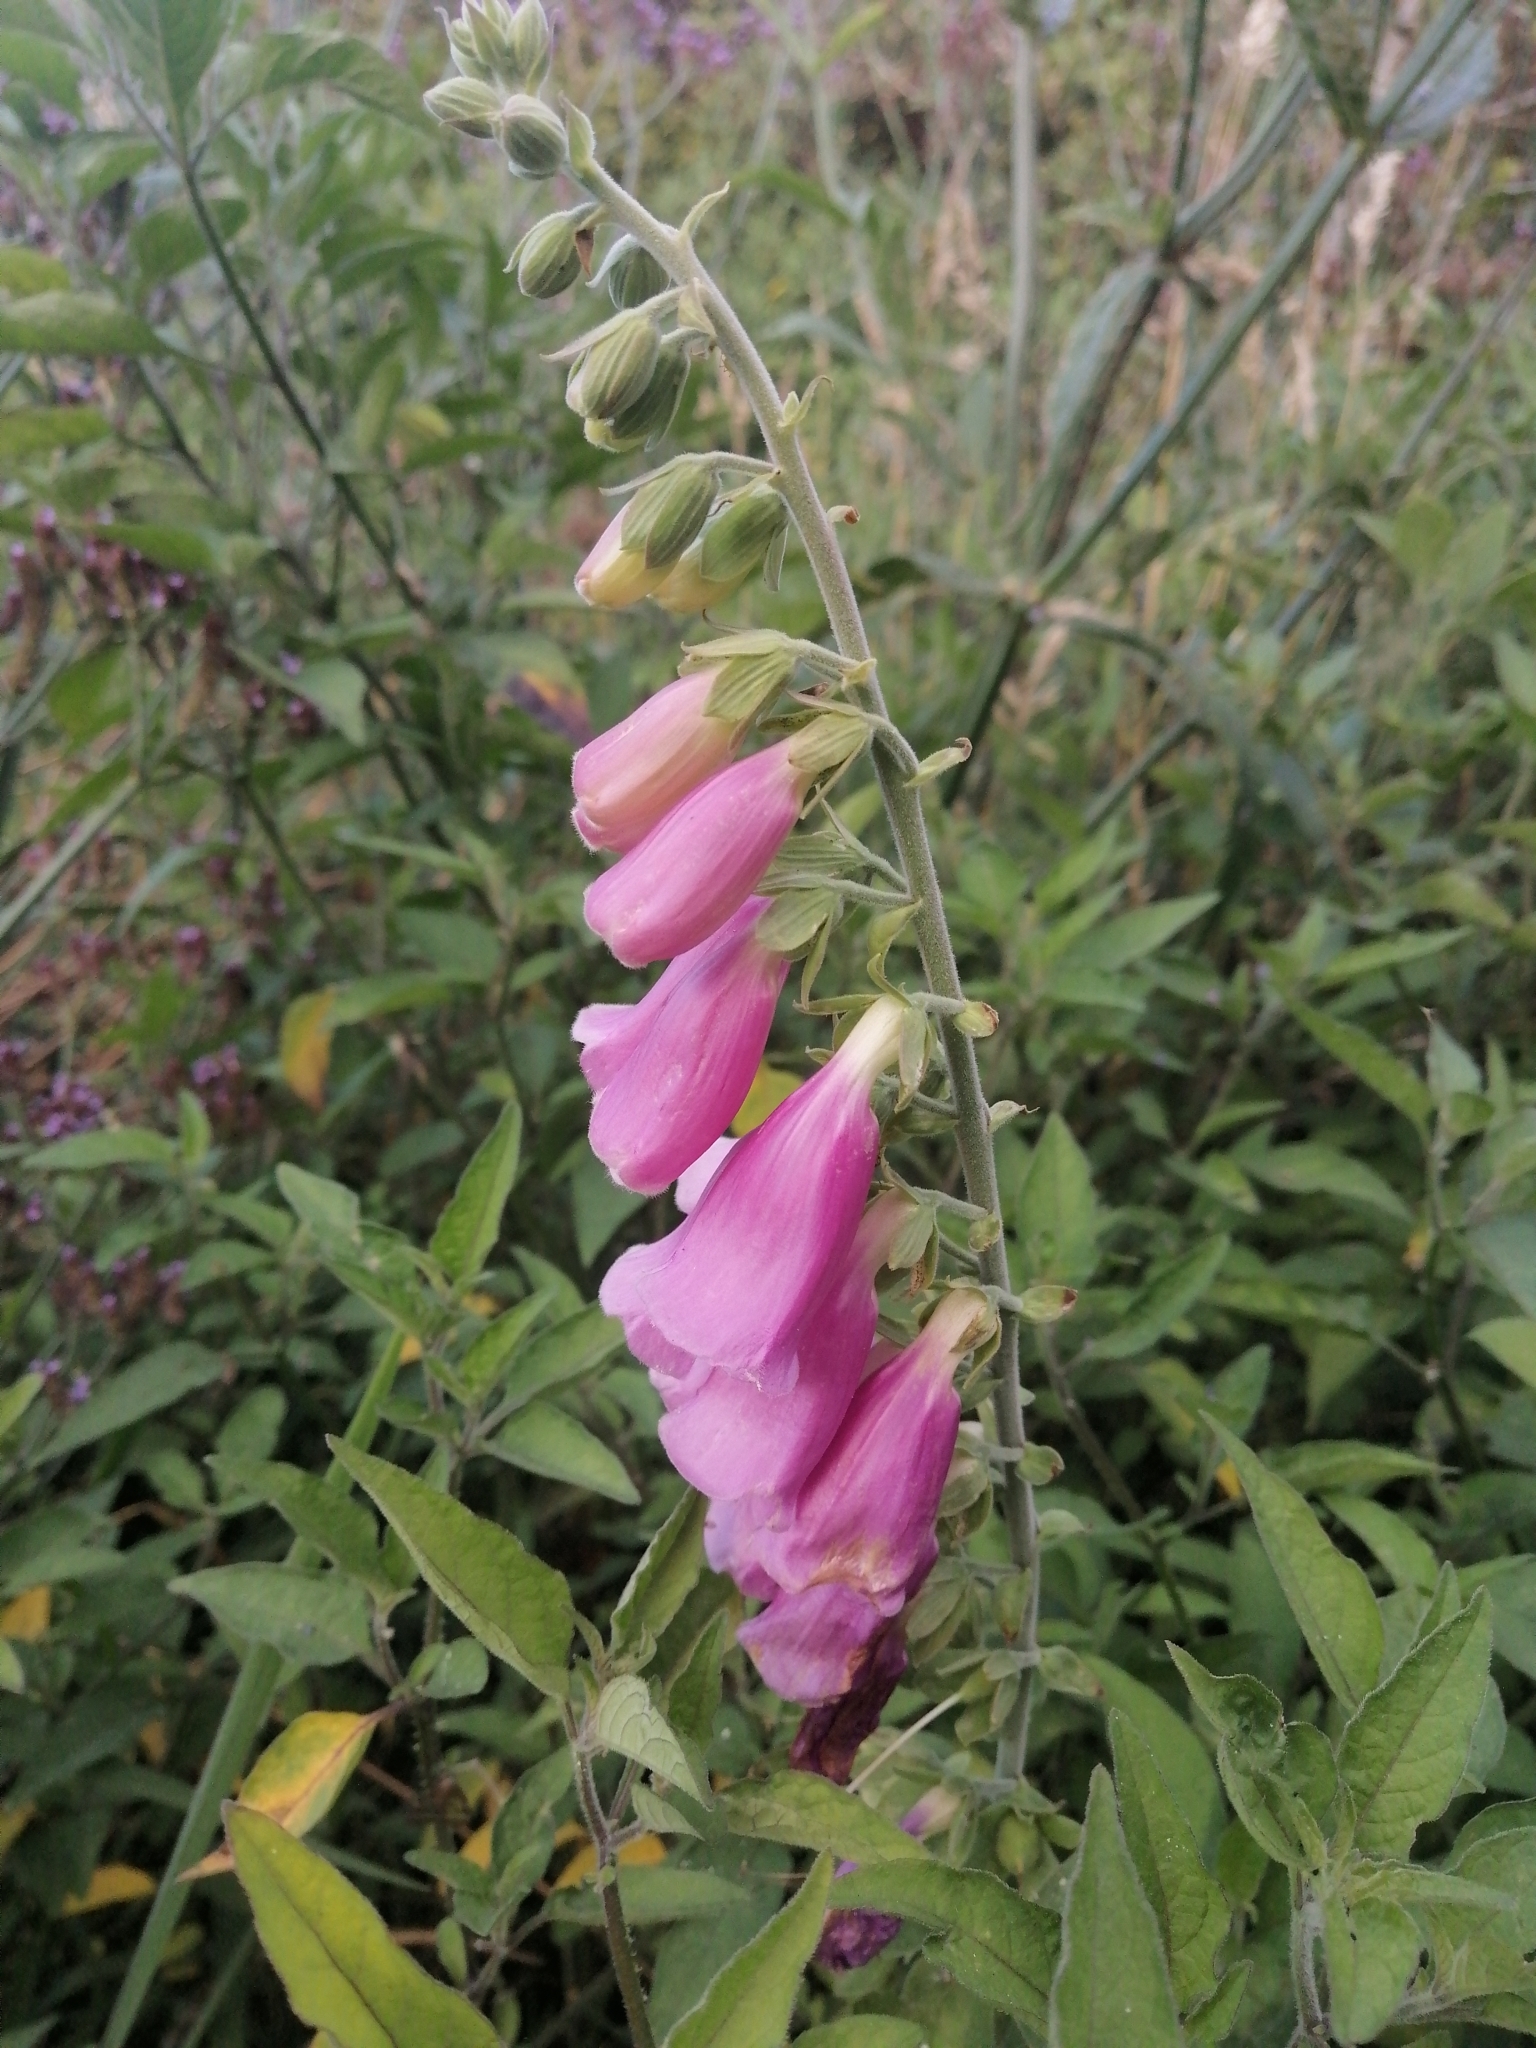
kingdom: Plantae
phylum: Tracheophyta
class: Magnoliopsida
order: Lamiales
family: Plantaginaceae
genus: Digitalis
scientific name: Digitalis purpurea
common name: Foxglove
